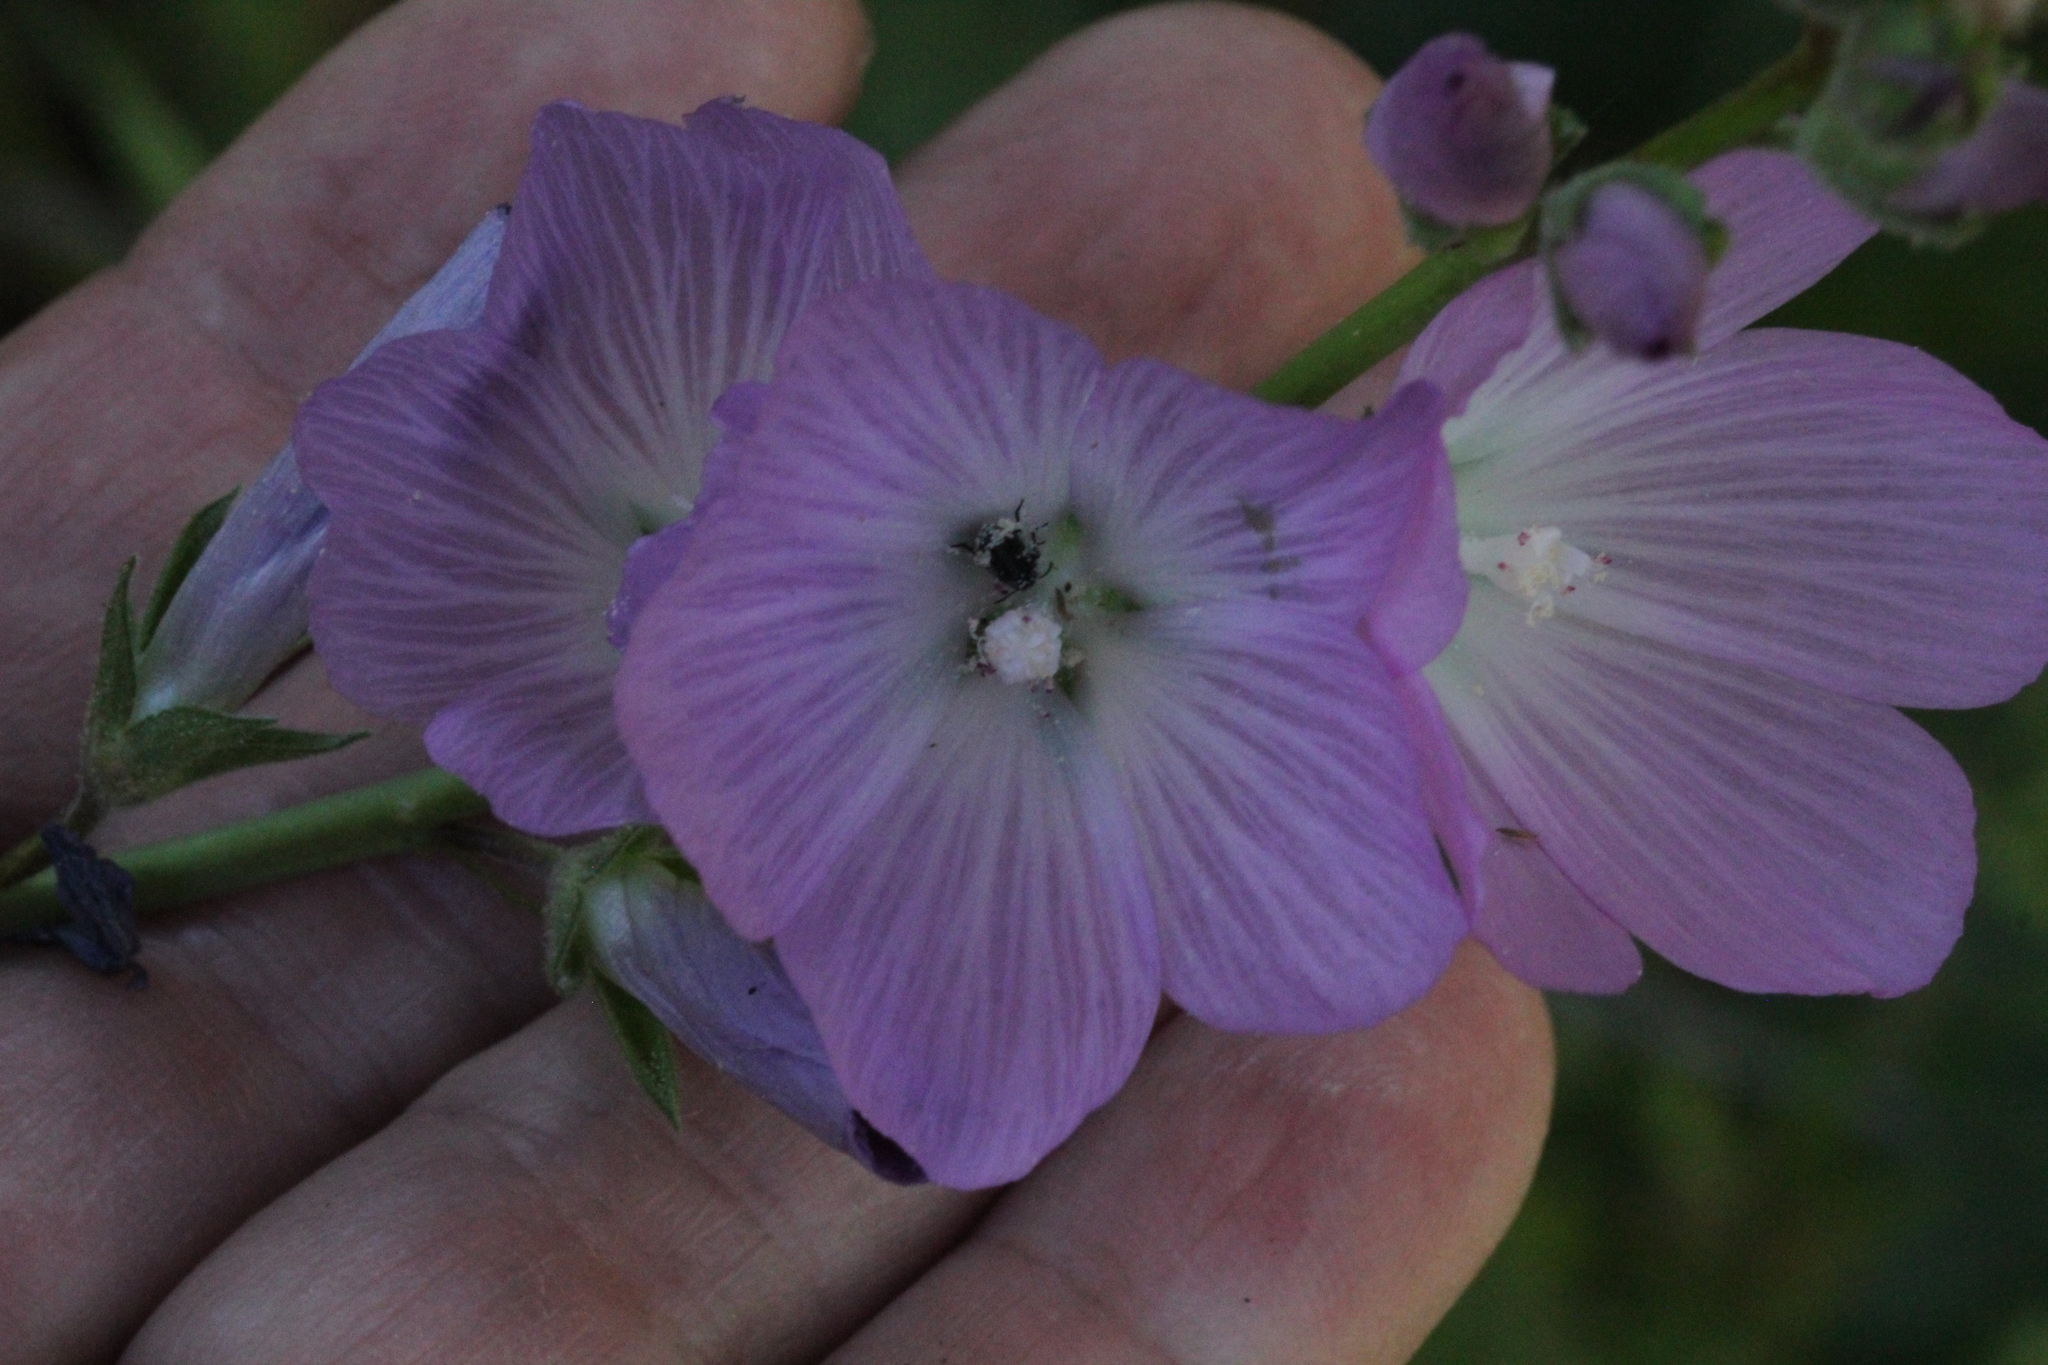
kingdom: Plantae
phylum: Tracheophyta
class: Magnoliopsida
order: Malvales
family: Malvaceae
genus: Sidalcea
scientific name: Sidalcea sparsifolia
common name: Southern checkerbloom
